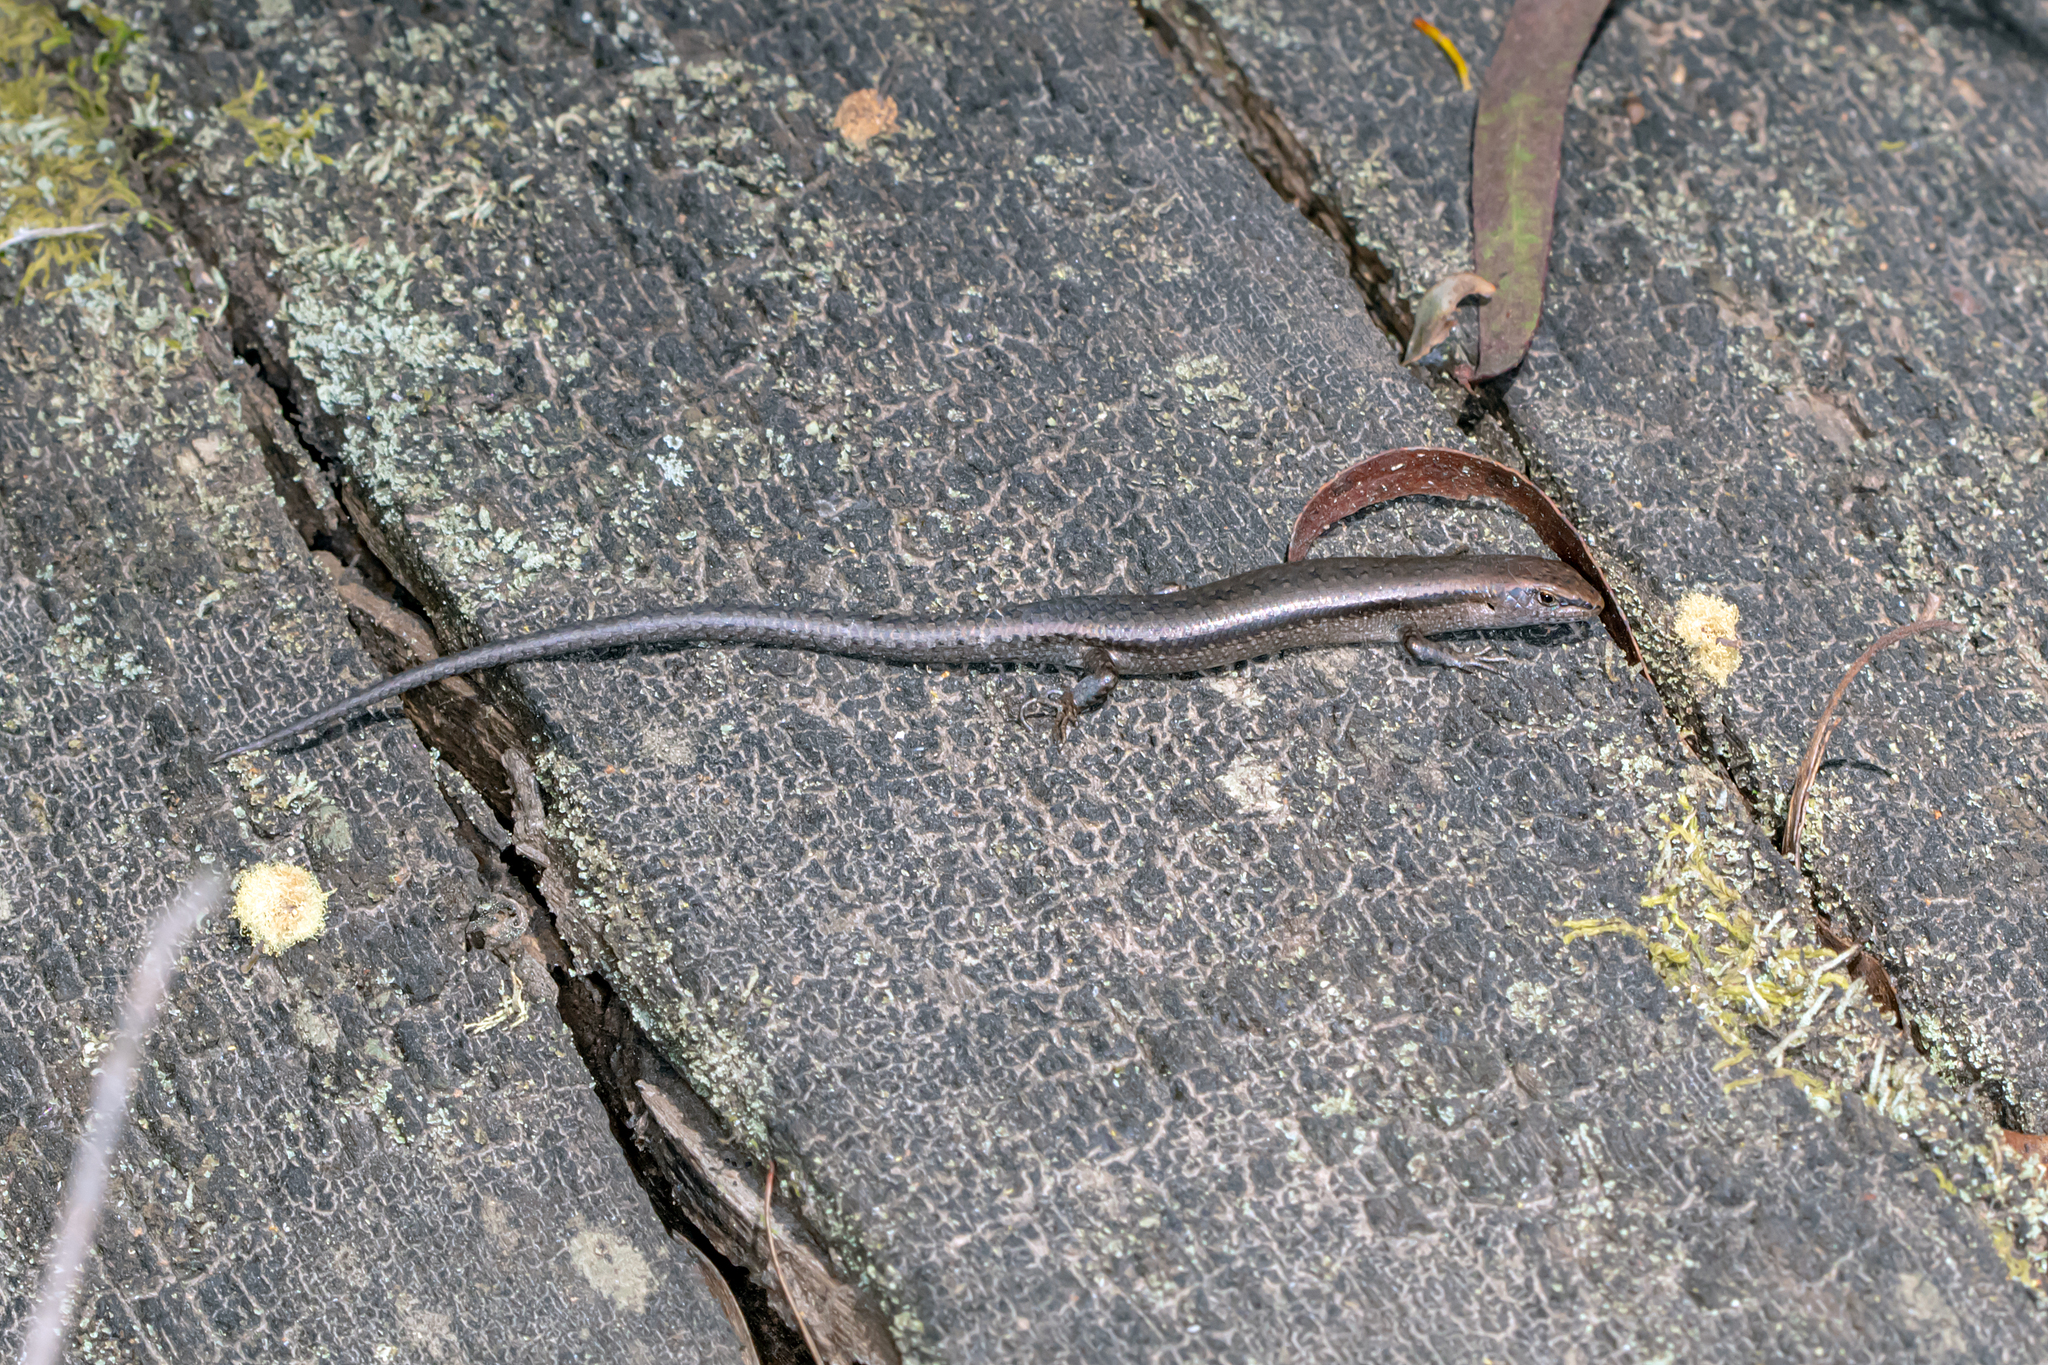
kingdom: Animalia
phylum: Chordata
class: Squamata
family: Scincidae
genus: Lampropholis
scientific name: Lampropholis guichenoti
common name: Garden skink
